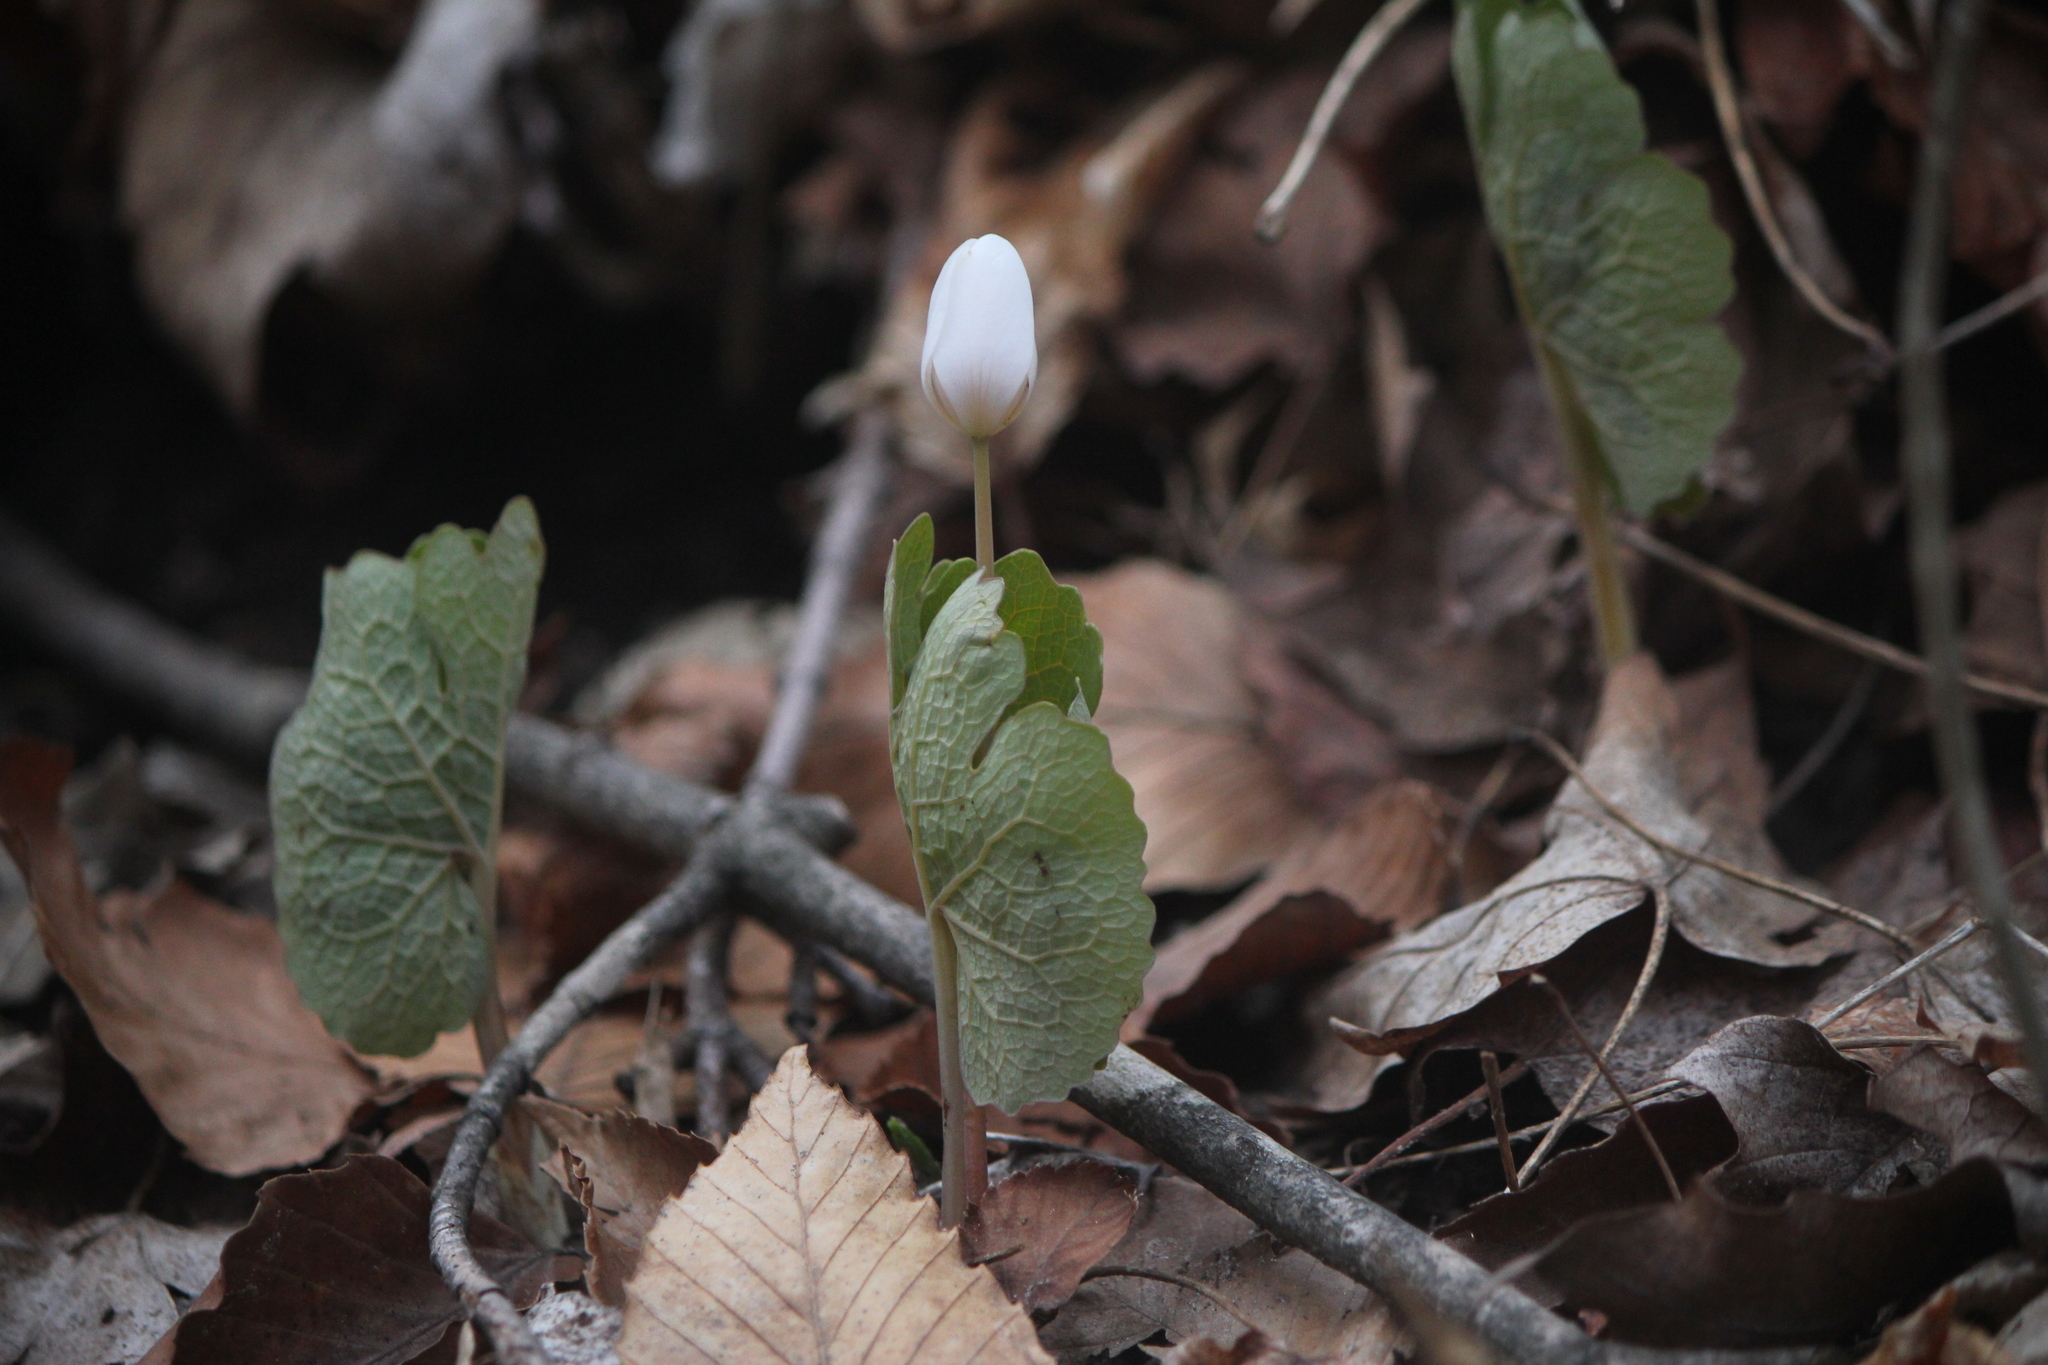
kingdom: Plantae
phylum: Tracheophyta
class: Magnoliopsida
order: Ranunculales
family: Papaveraceae
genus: Sanguinaria
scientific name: Sanguinaria canadensis
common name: Bloodroot
